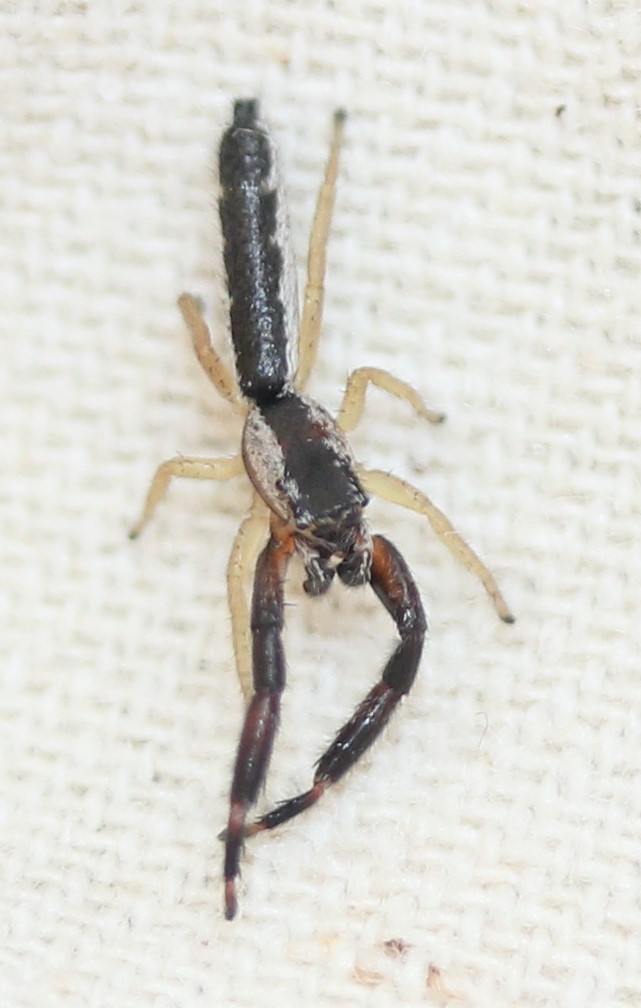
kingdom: Animalia
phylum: Arthropoda
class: Arachnida
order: Araneae
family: Salticidae
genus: Marpissa
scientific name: Marpissa pikei
